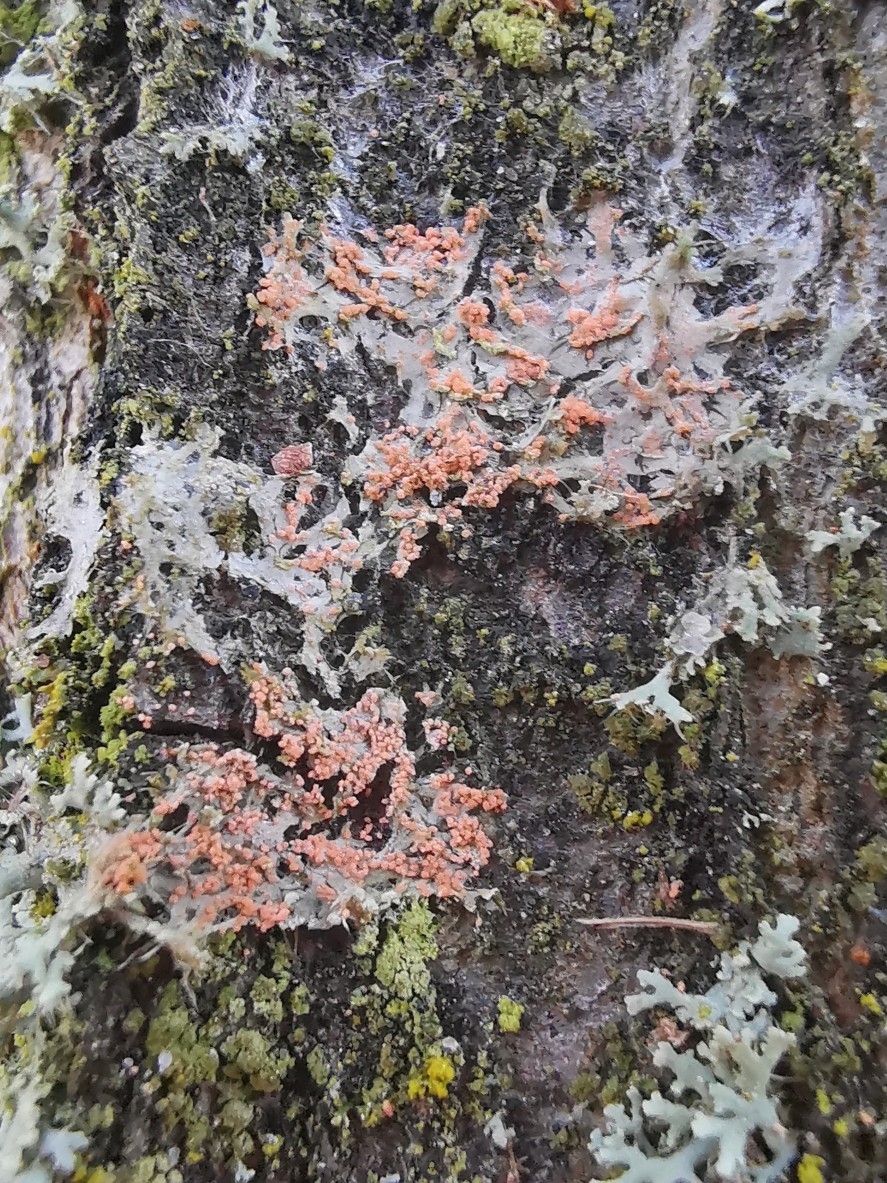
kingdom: Fungi
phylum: Basidiomycota
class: Agaricomycetes
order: Corticiales
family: Corticiaceae
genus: Erythricium
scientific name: Erythricium aurantiacum
